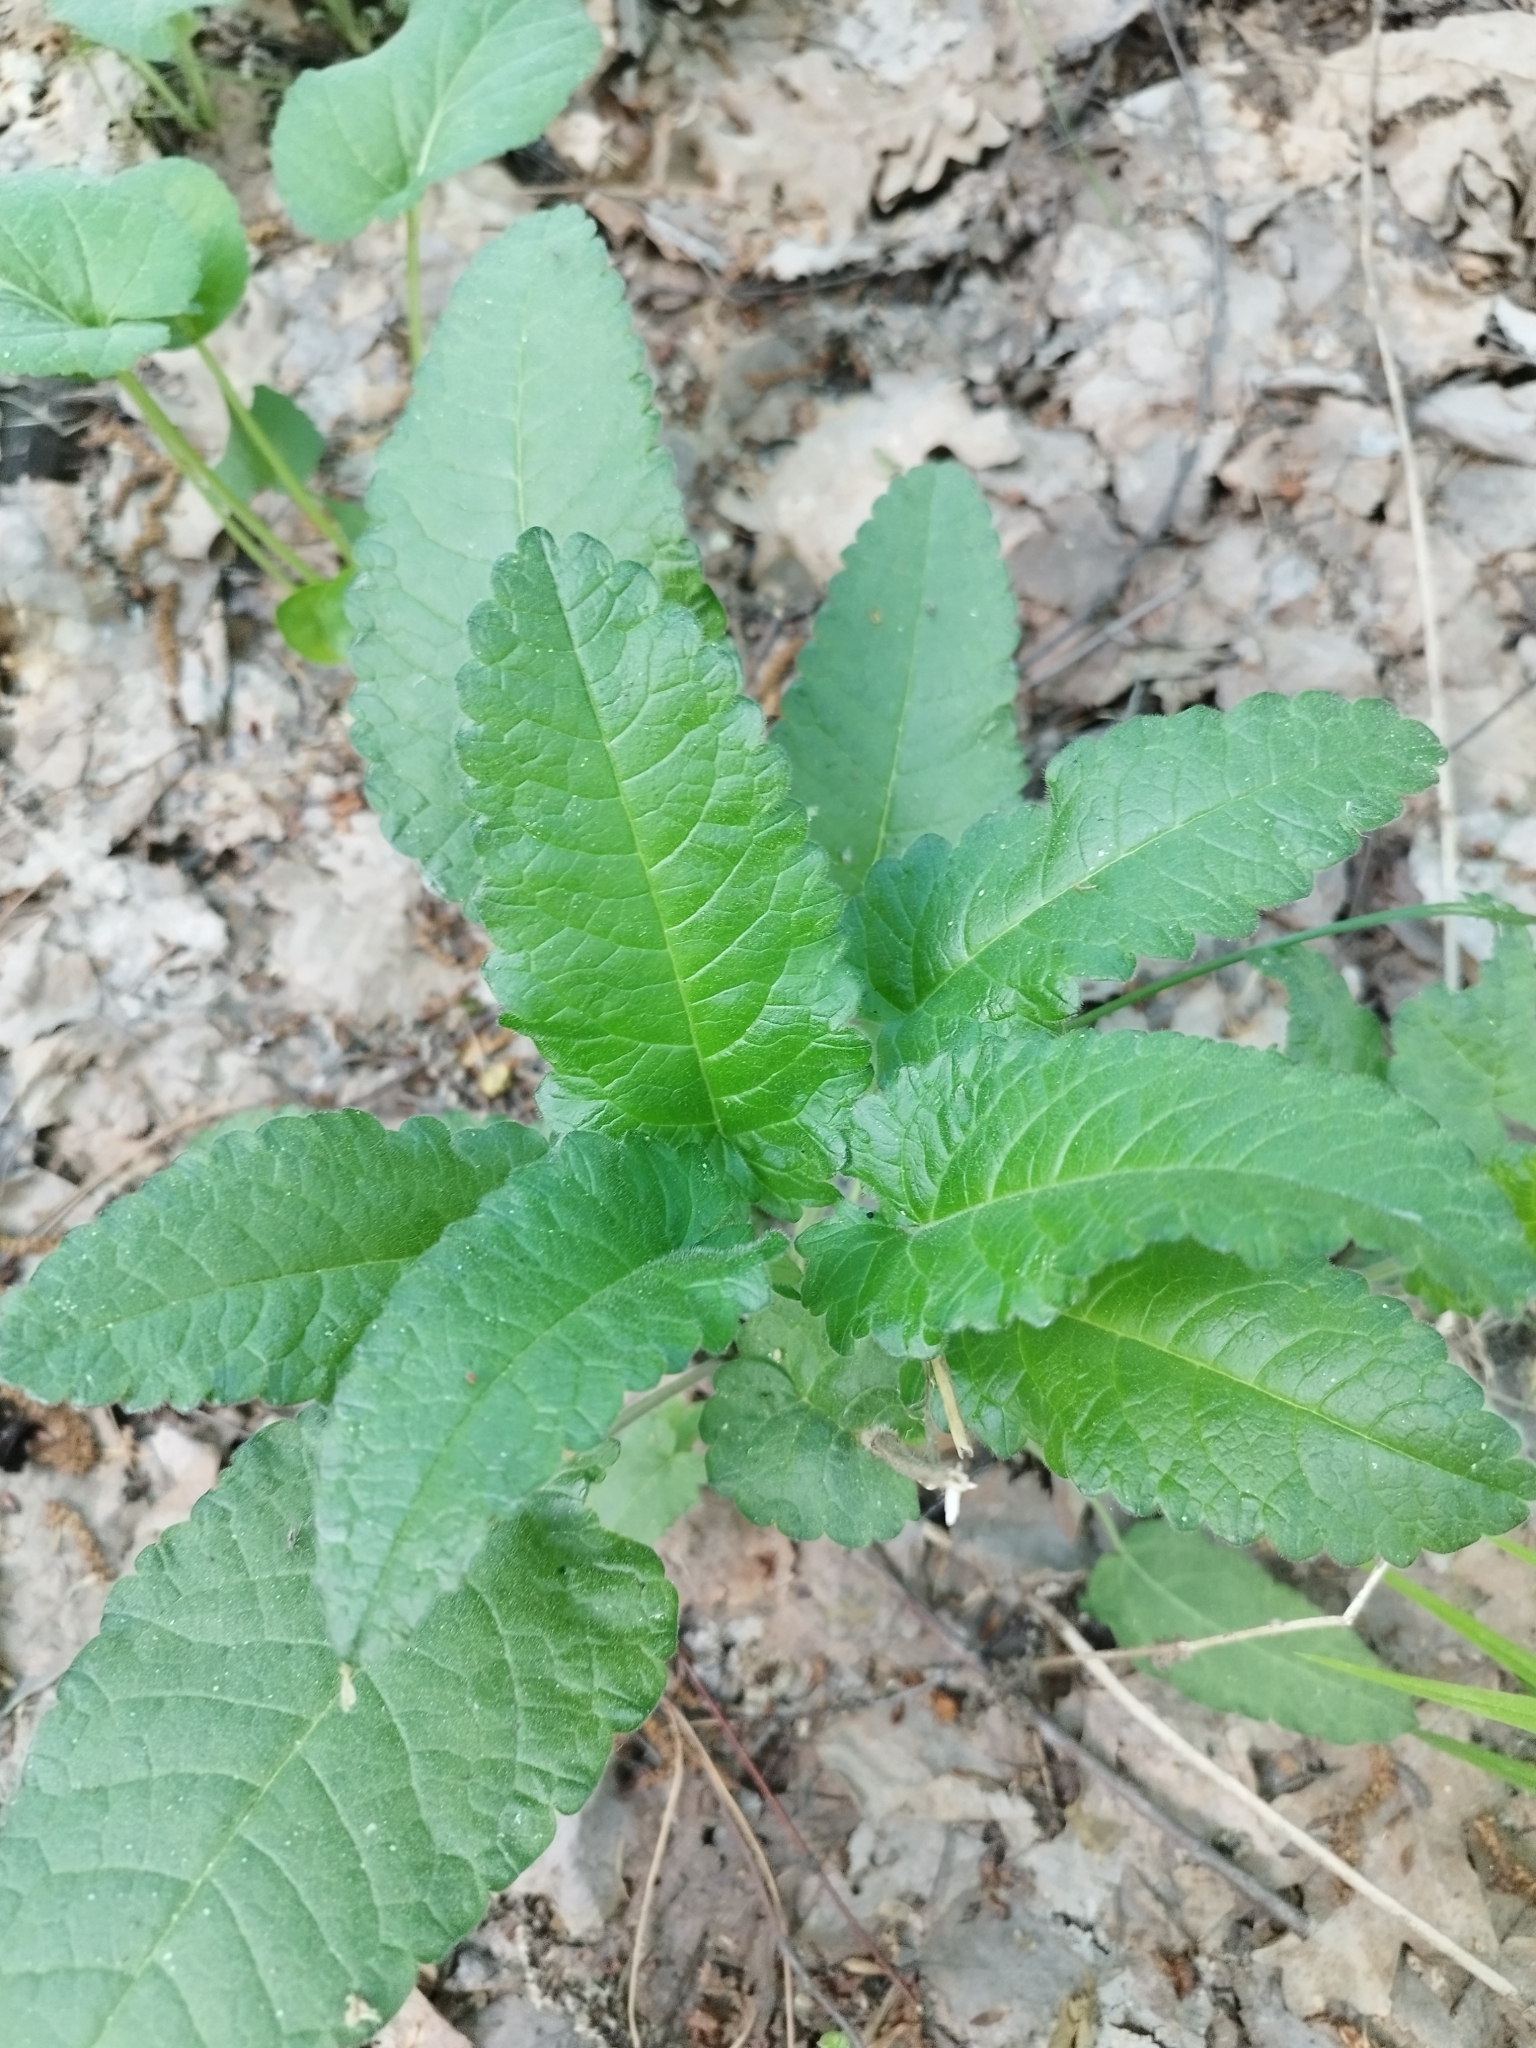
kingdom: Plantae
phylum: Tracheophyta
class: Magnoliopsida
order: Lamiales
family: Lamiaceae
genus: Betonica
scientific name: Betonica officinalis
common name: Bishop's-wort
